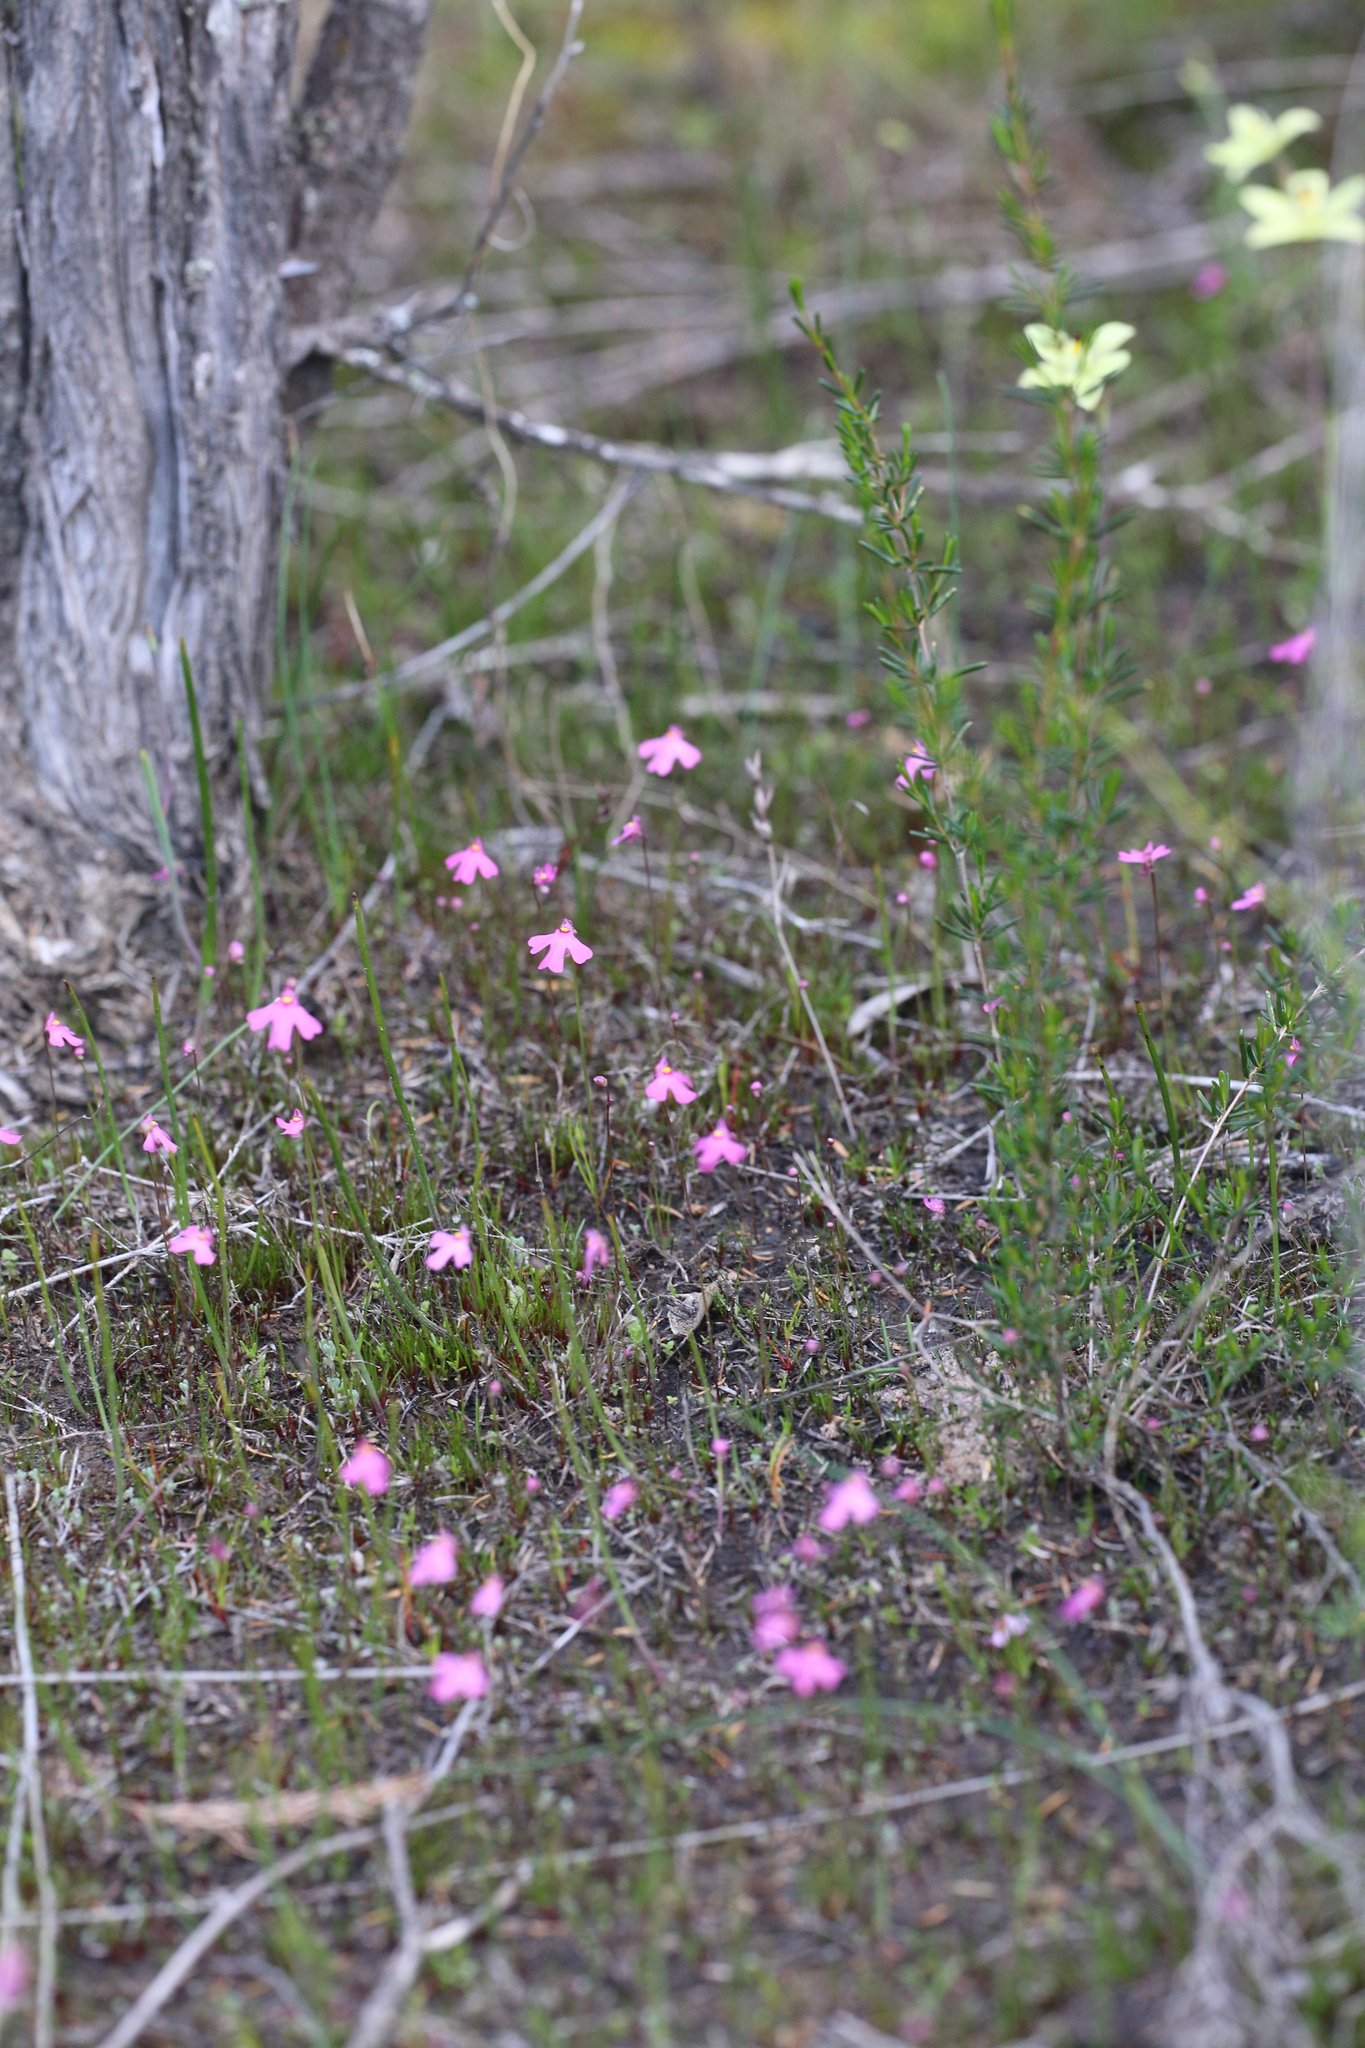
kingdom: Plantae
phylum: Tracheophyta
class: Magnoliopsida
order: Lamiales
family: Lentibulariaceae
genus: Utricularia
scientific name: Utricularia multifida
